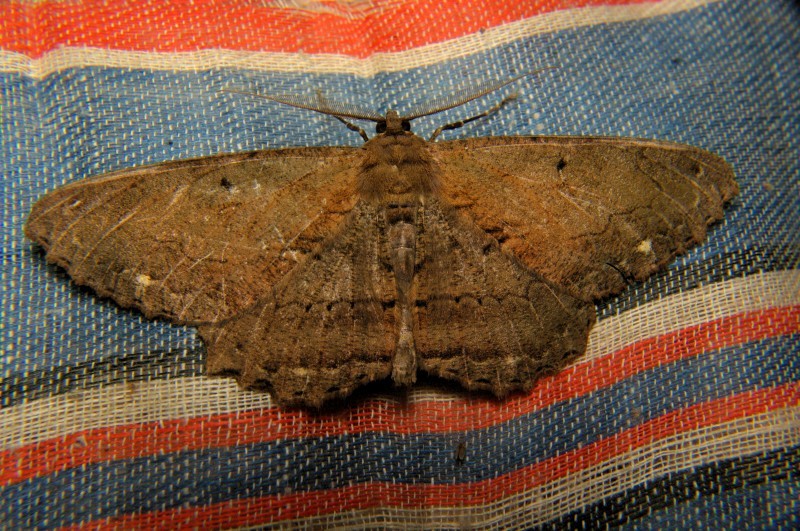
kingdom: Animalia
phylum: Arthropoda
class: Insecta
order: Lepidoptera
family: Geometridae
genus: Chorodna
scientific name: Chorodna creataria
